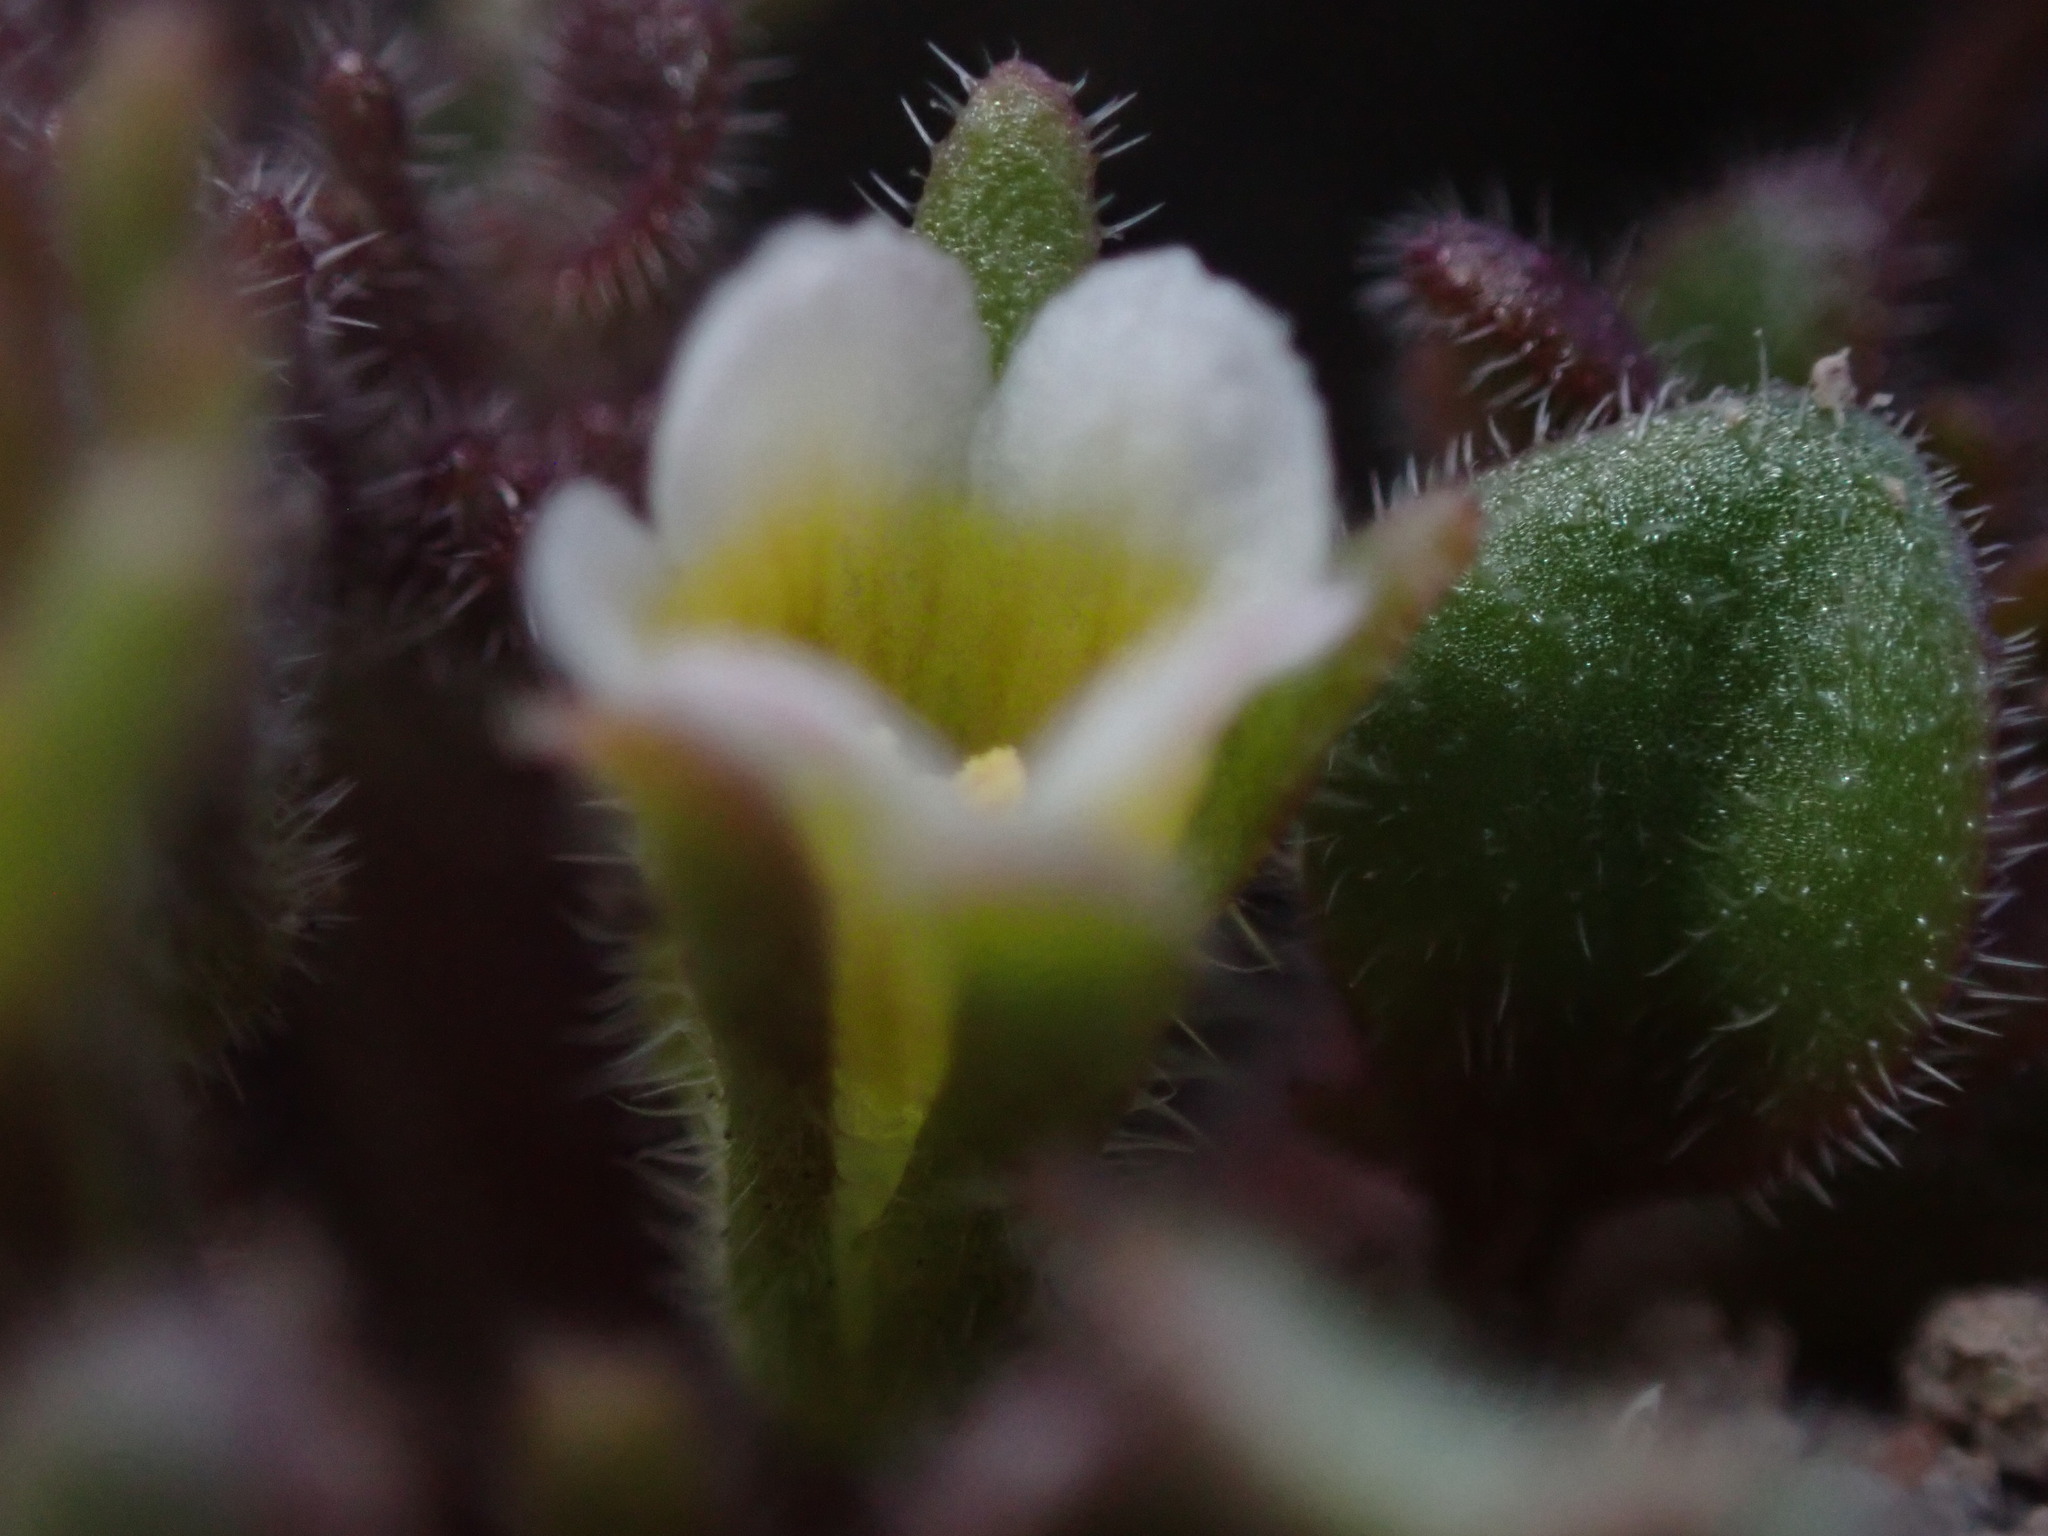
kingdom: Plantae
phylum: Tracheophyta
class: Magnoliopsida
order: Boraginales
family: Hydrophyllaceae
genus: Phacelia
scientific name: Phacelia scopulina
